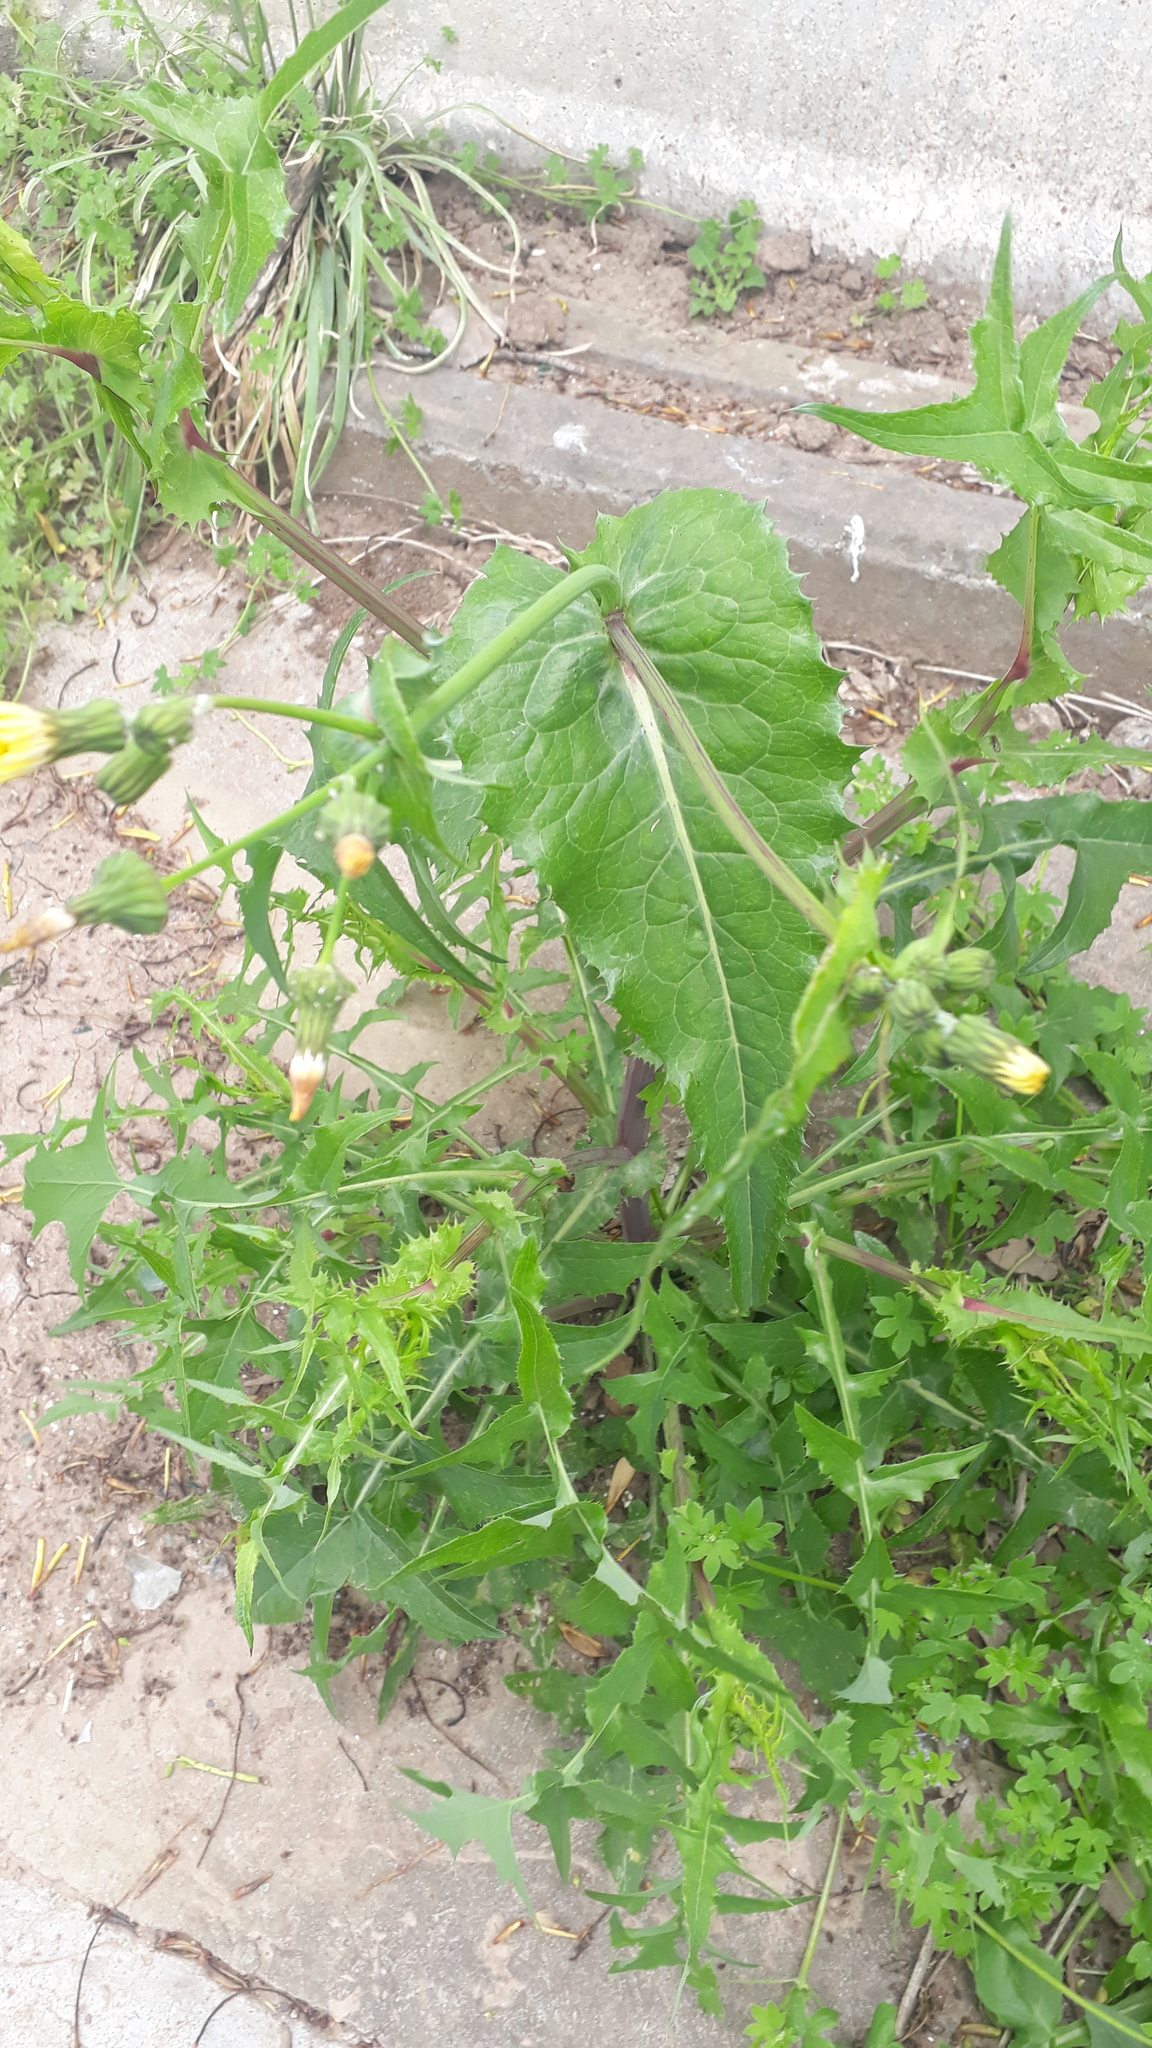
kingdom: Plantae
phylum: Tracheophyta
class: Magnoliopsida
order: Asterales
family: Asteraceae
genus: Sonchus
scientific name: Sonchus oleraceus
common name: Common sowthistle
